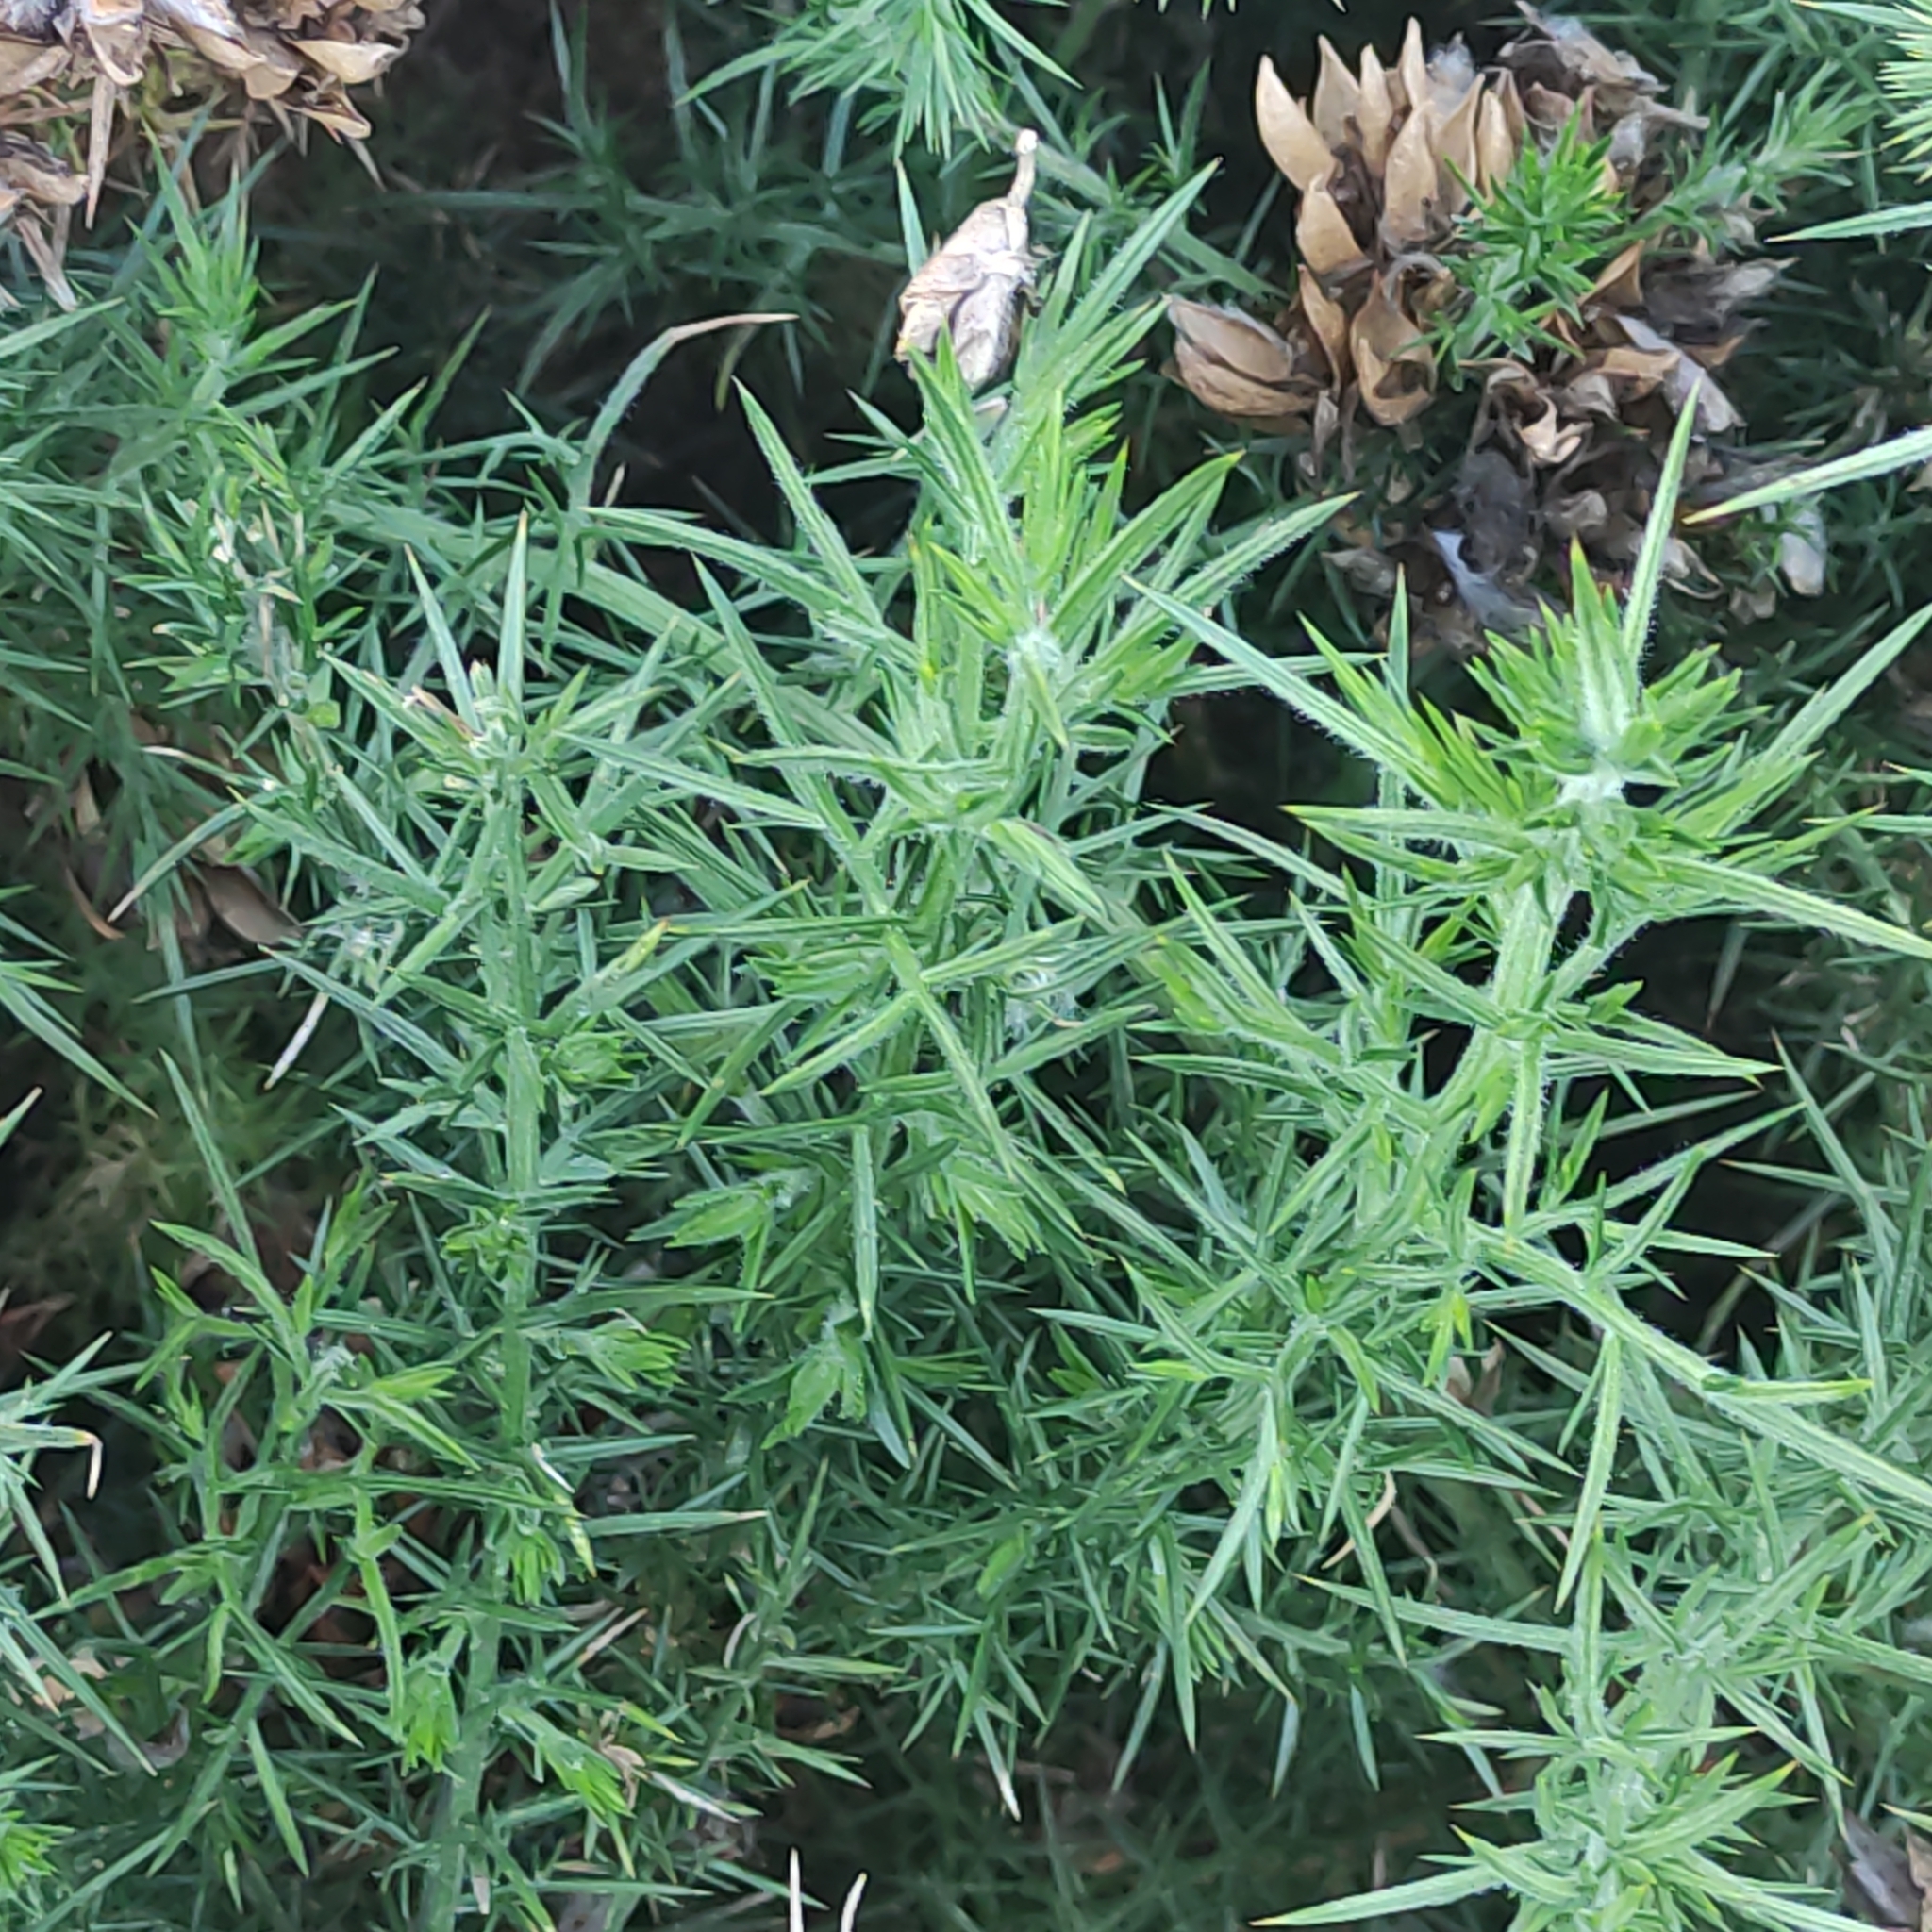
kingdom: Plantae
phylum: Tracheophyta
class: Magnoliopsida
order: Fabales
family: Fabaceae
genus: Ulex
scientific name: Ulex europaeus
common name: Common gorse
